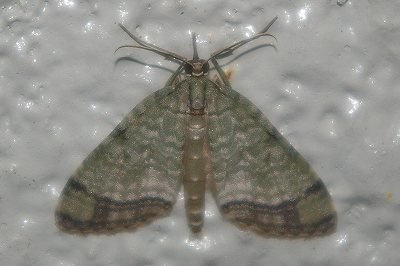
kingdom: Animalia
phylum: Arthropoda
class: Insecta
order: Lepidoptera
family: Geometridae
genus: Episteira
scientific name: Episteira nigrilinearia
